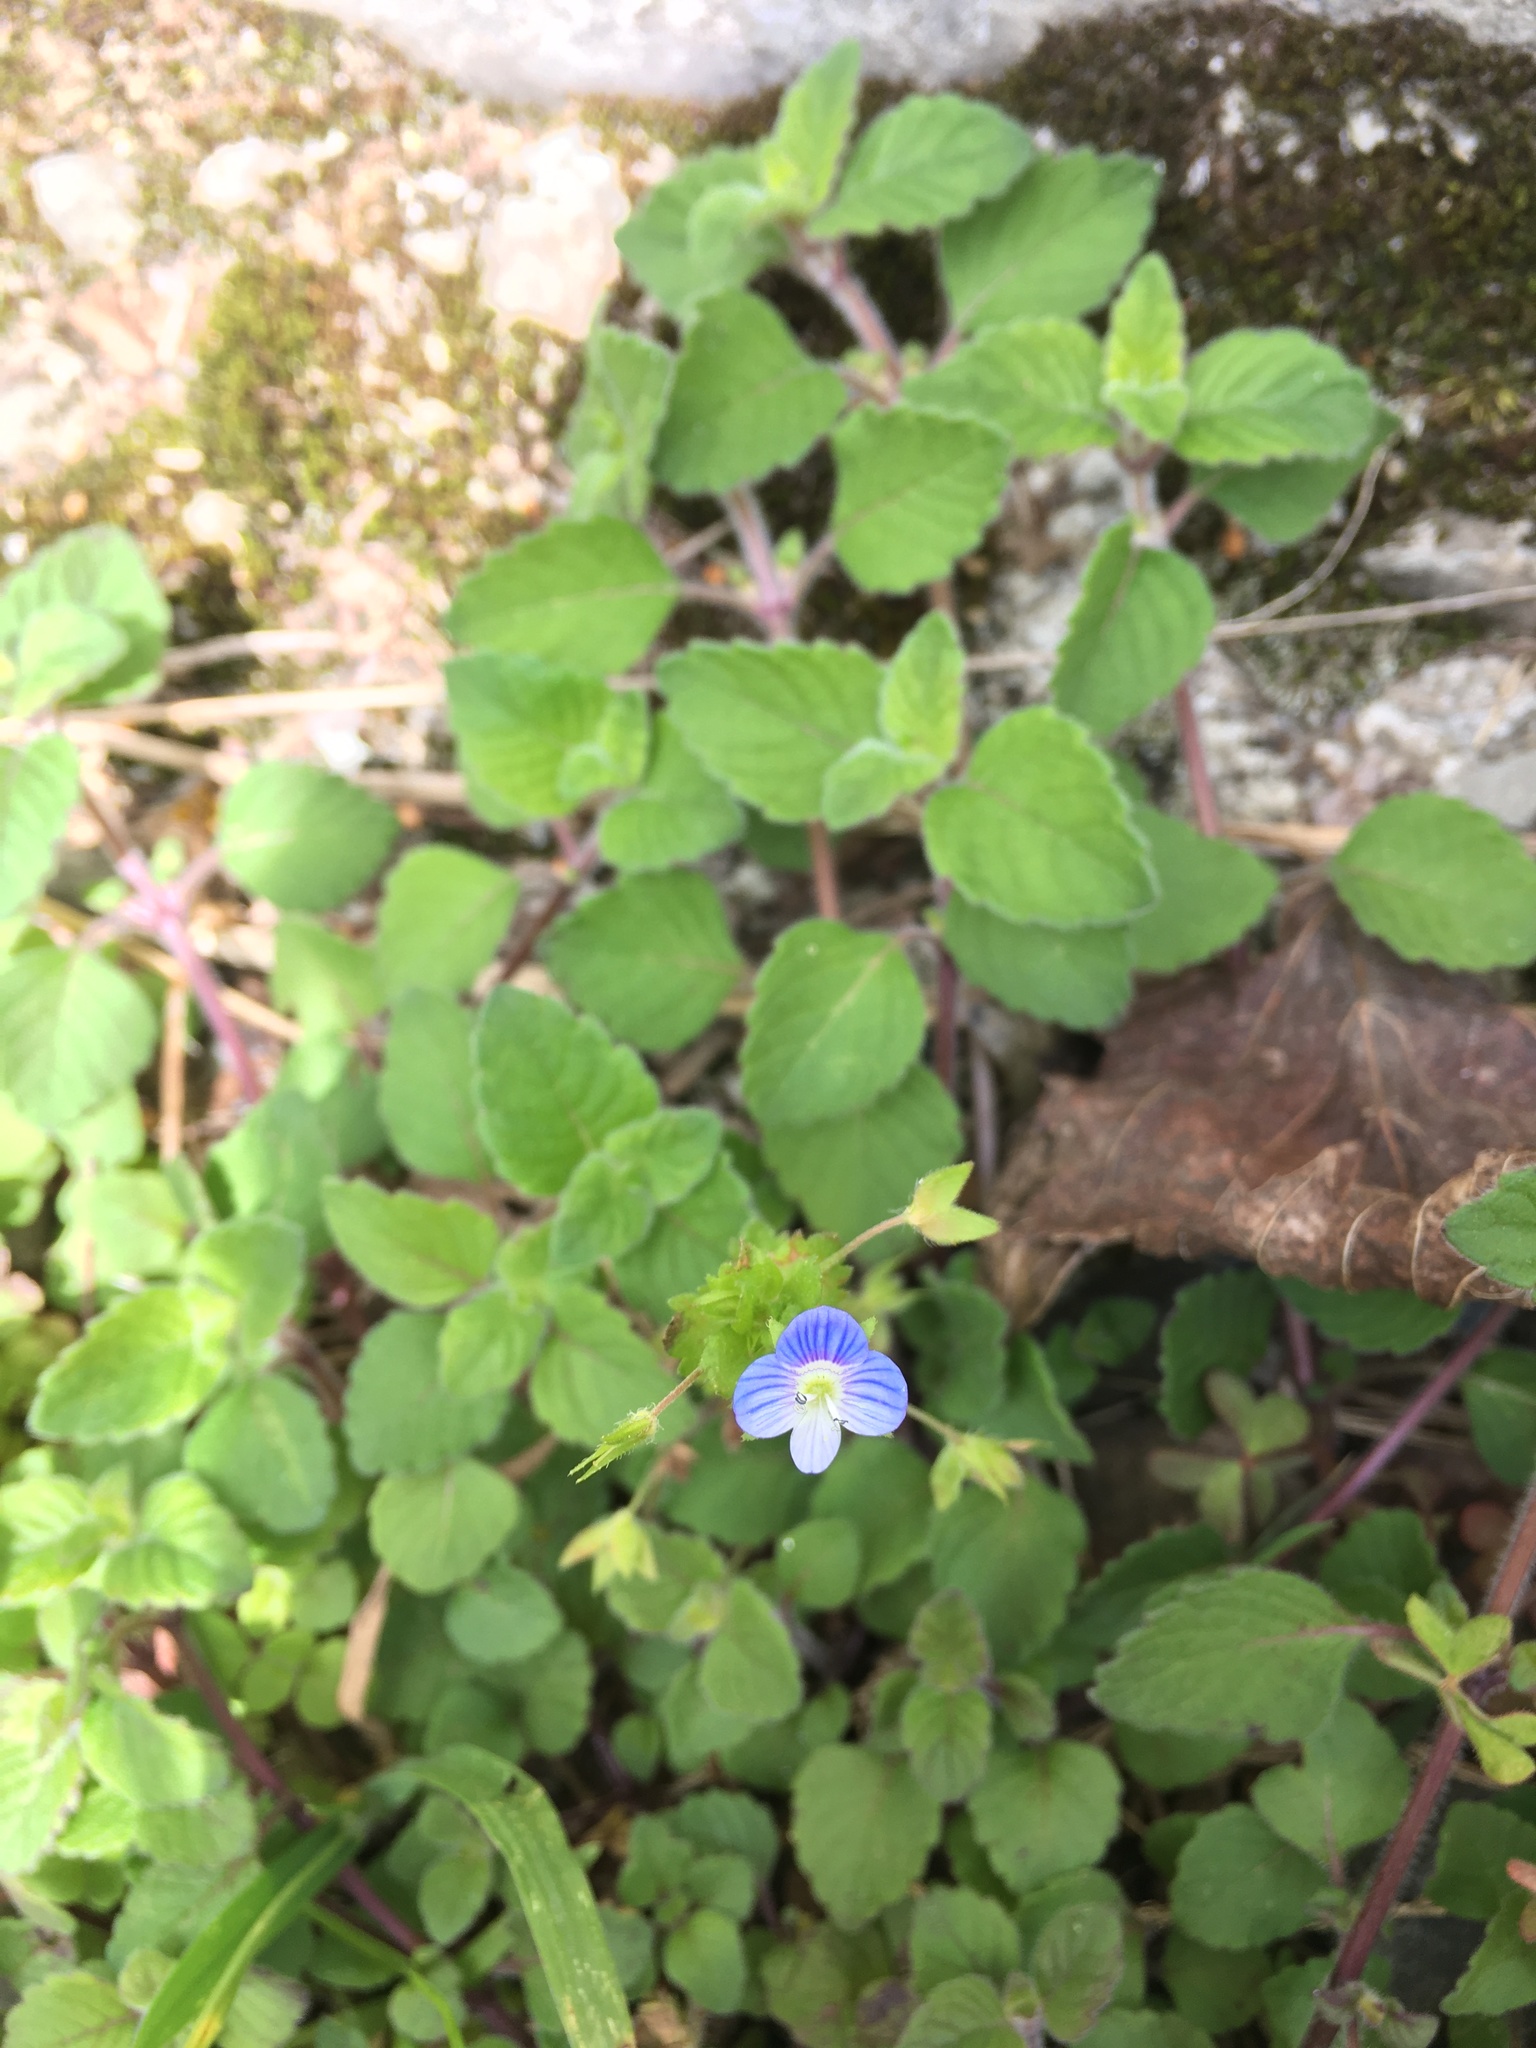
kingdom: Plantae
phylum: Tracheophyta
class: Magnoliopsida
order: Lamiales
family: Plantaginaceae
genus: Veronica
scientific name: Veronica persica
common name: Common field-speedwell
